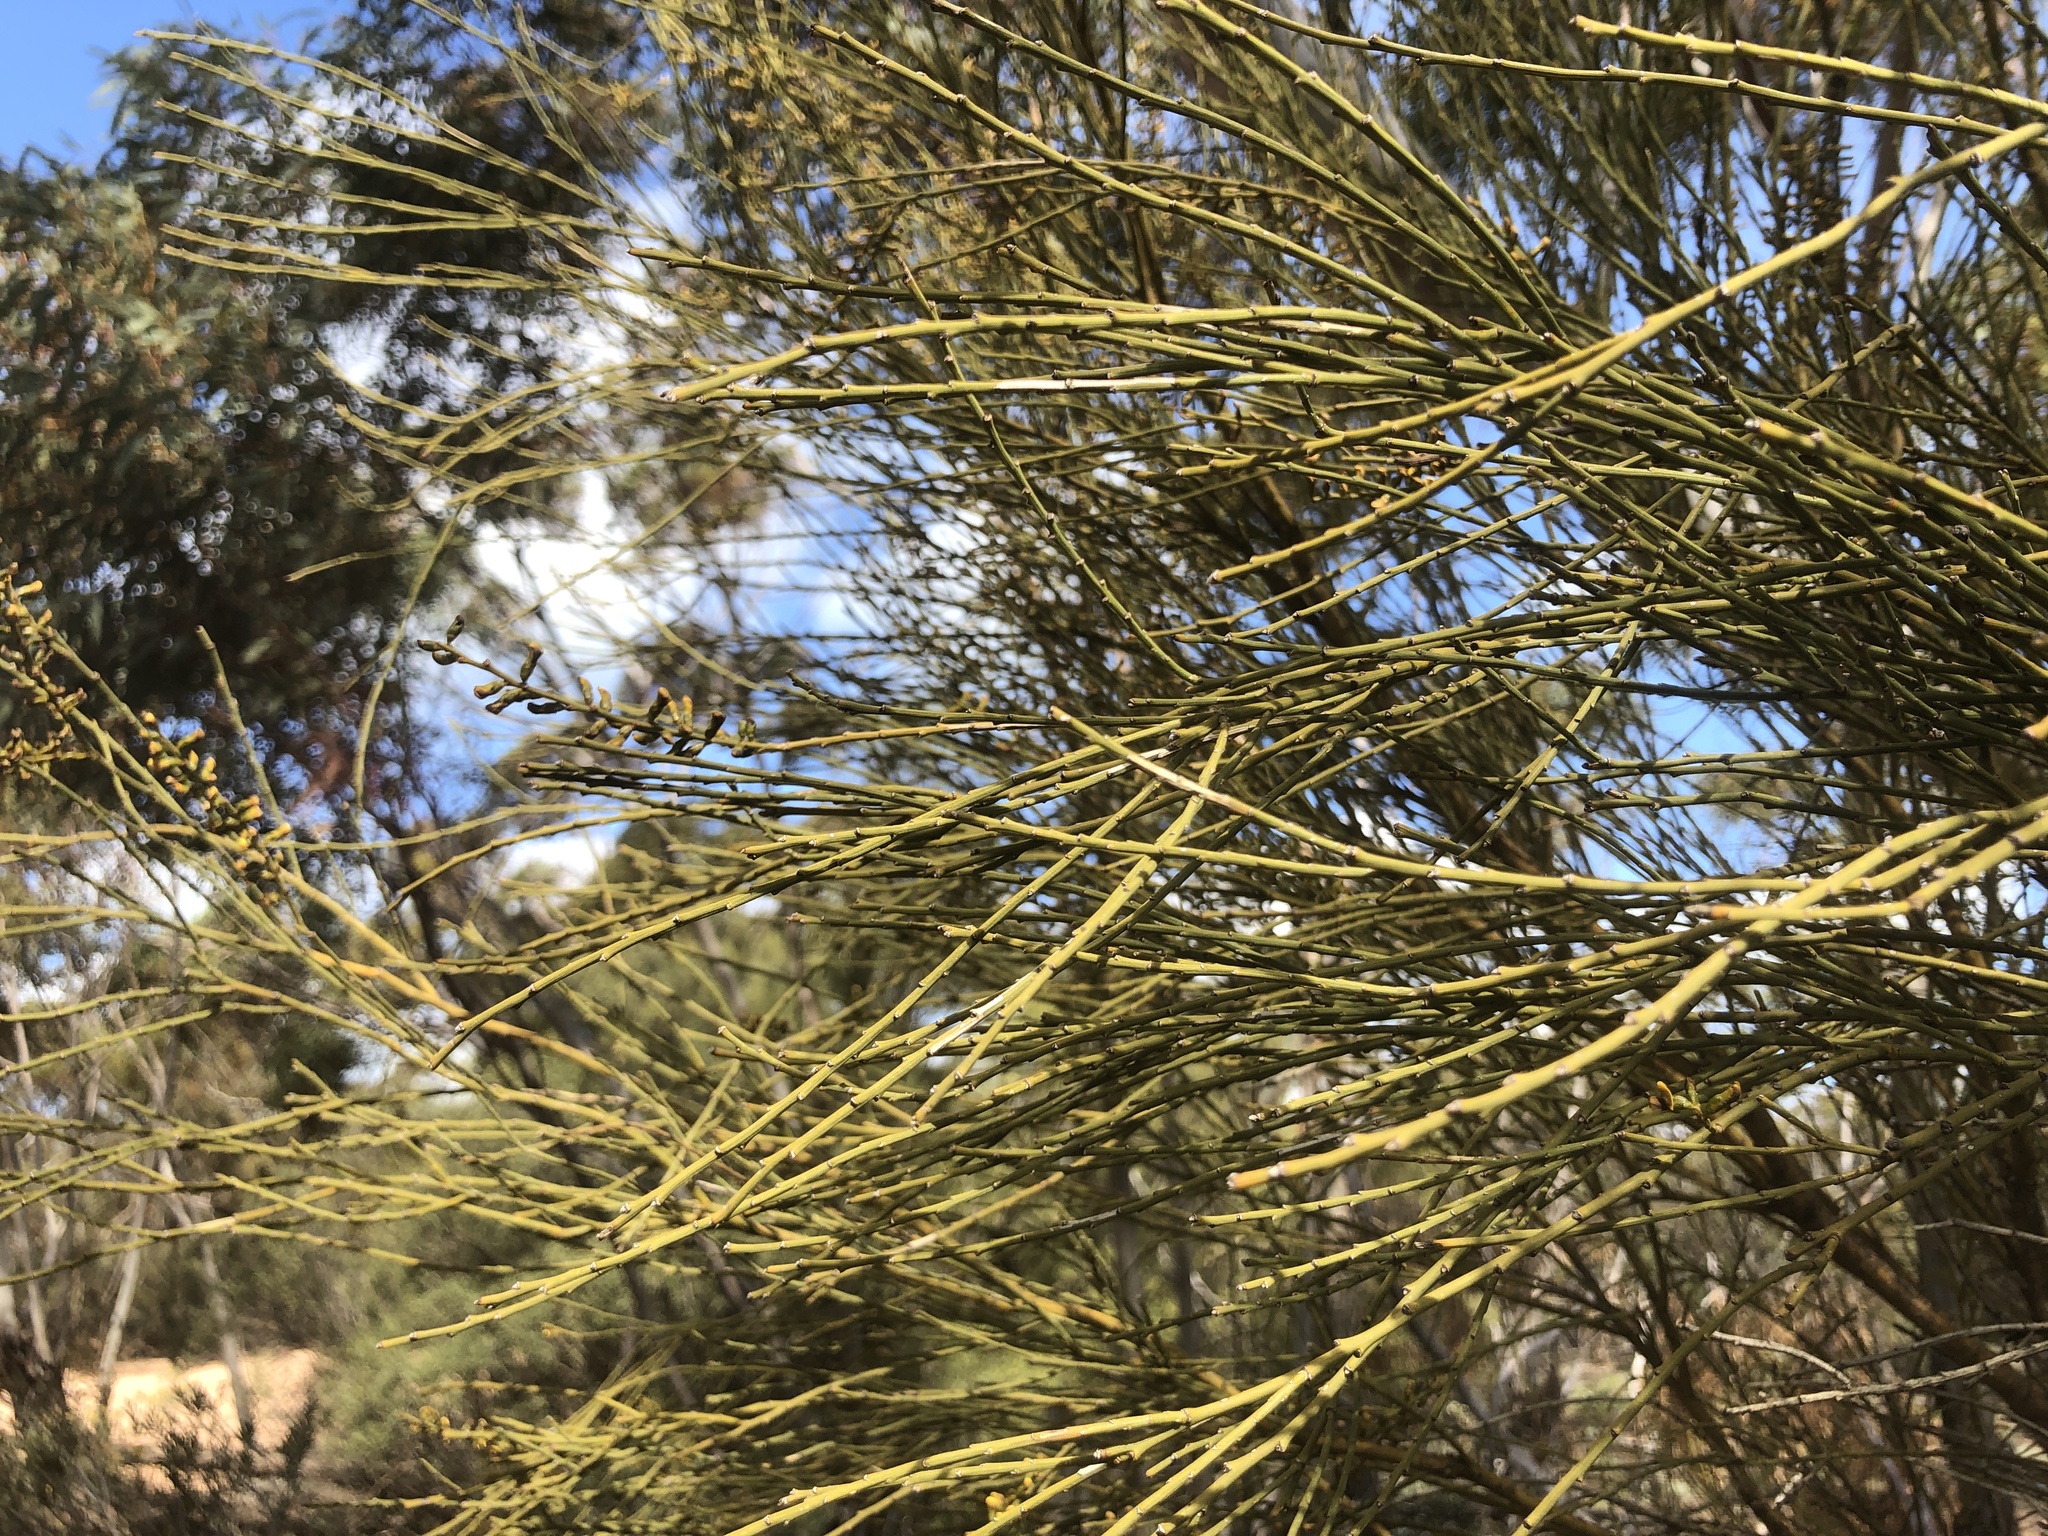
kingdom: Plantae
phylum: Tracheophyta
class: Magnoliopsida
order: Fabales
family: Fabaceae
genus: Templetonia
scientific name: Templetonia egena
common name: Desert broombush
